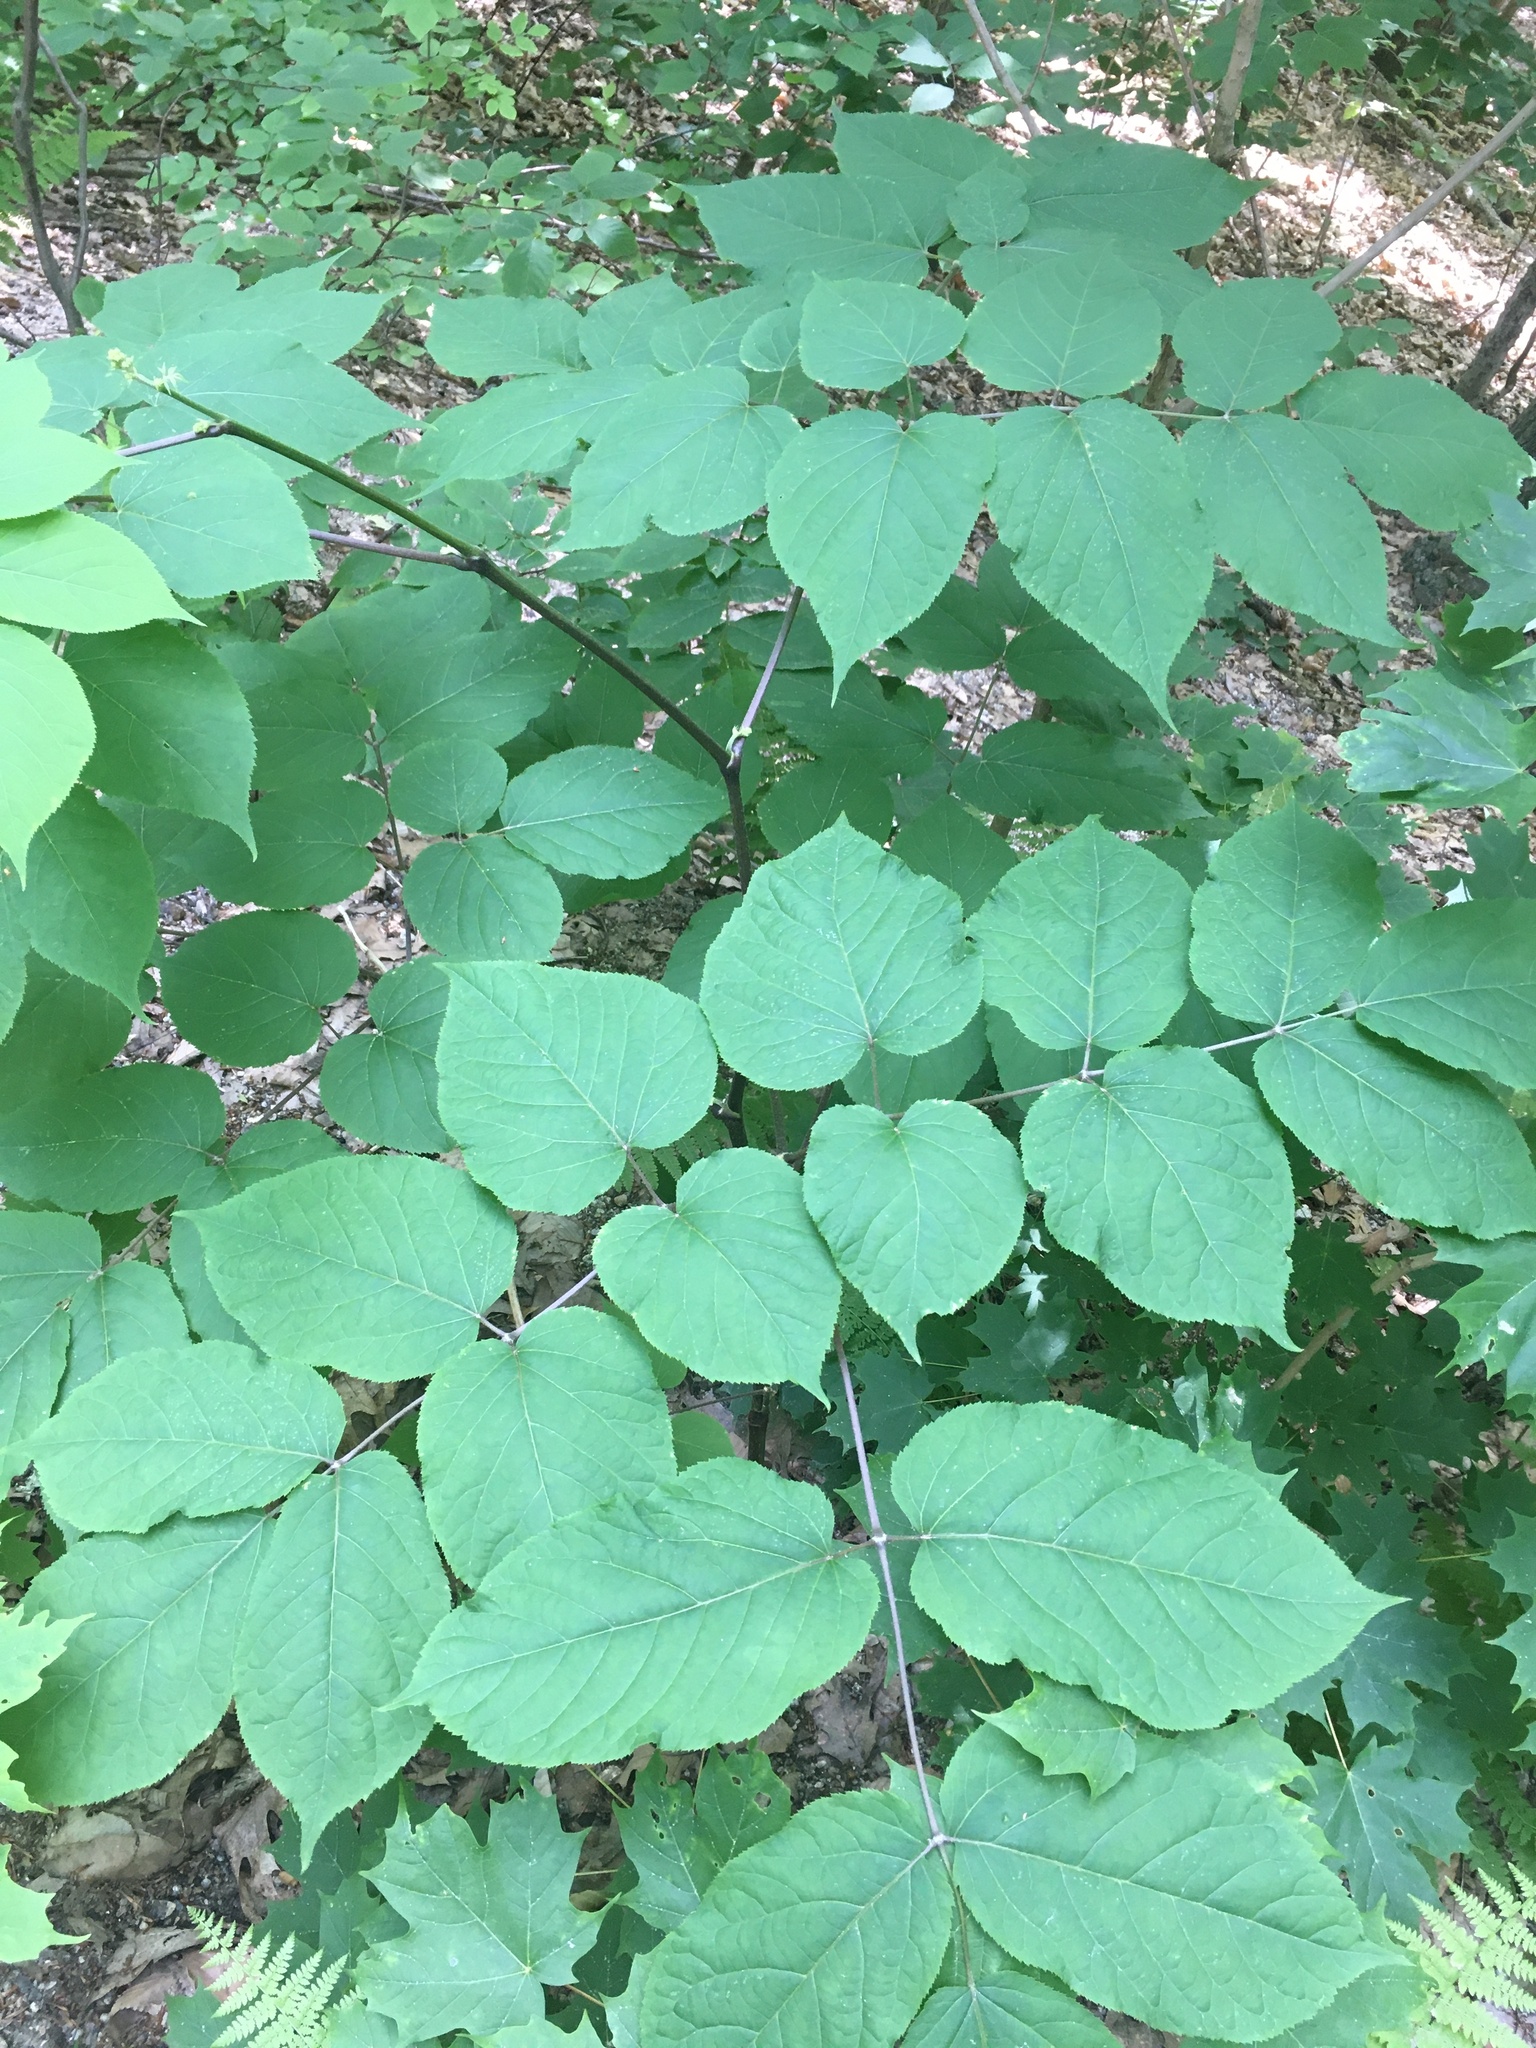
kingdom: Plantae
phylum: Tracheophyta
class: Magnoliopsida
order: Apiales
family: Araliaceae
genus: Aralia
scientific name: Aralia racemosa
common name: American-spikenard
